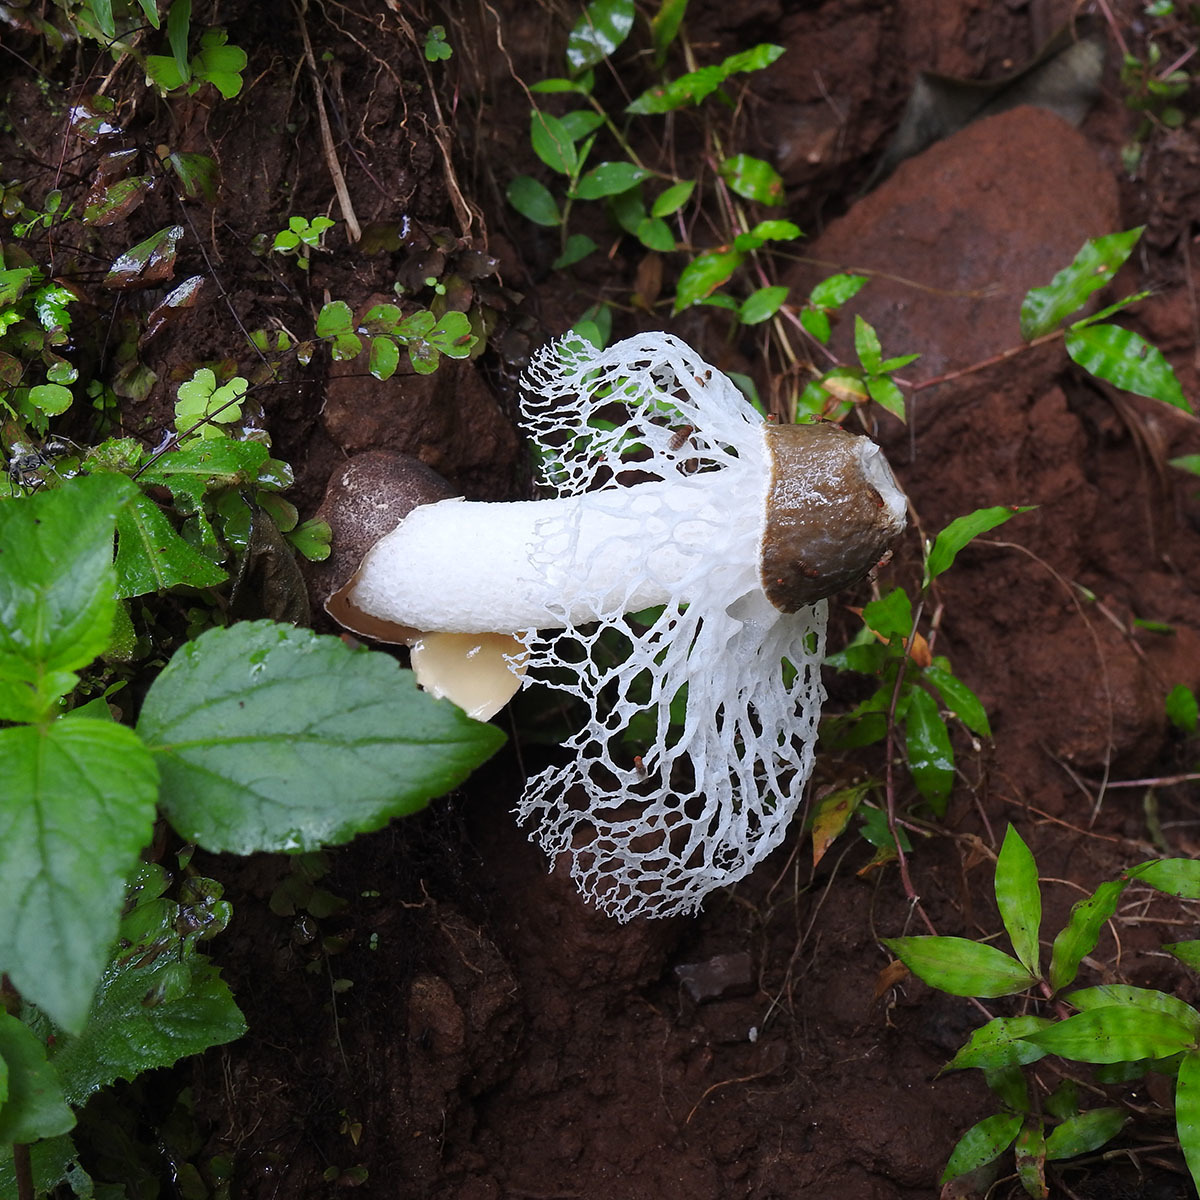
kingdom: Fungi
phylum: Basidiomycota
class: Agaricomycetes
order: Phallales
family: Phallaceae
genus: Phallus
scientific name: Phallus atrovolvatus
